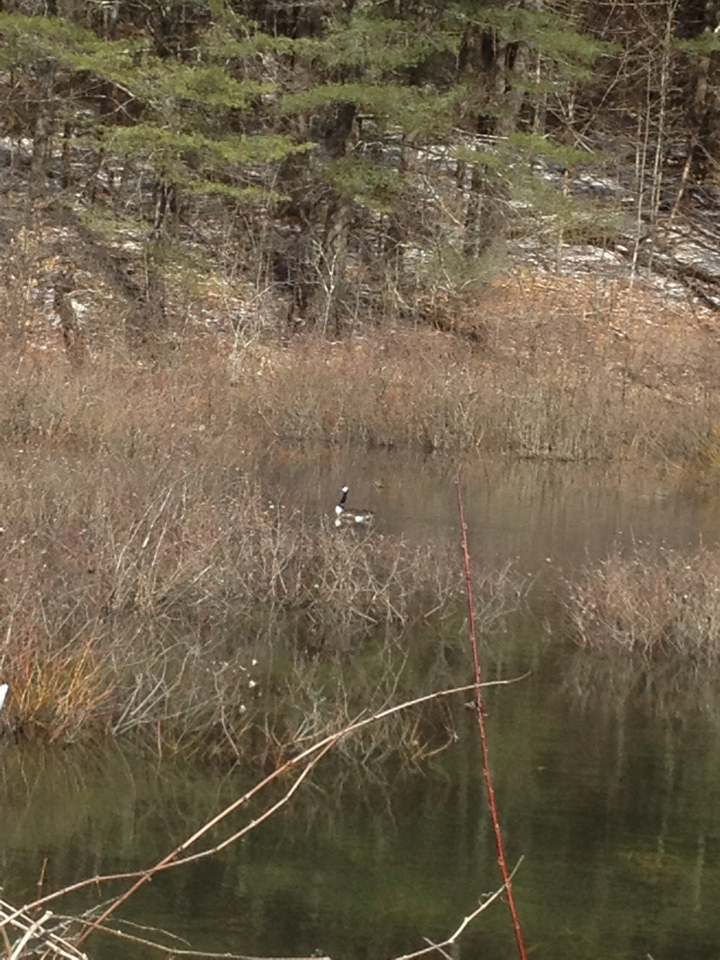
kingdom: Animalia
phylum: Chordata
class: Aves
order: Anseriformes
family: Anatidae
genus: Branta
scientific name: Branta canadensis
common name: Canada goose
